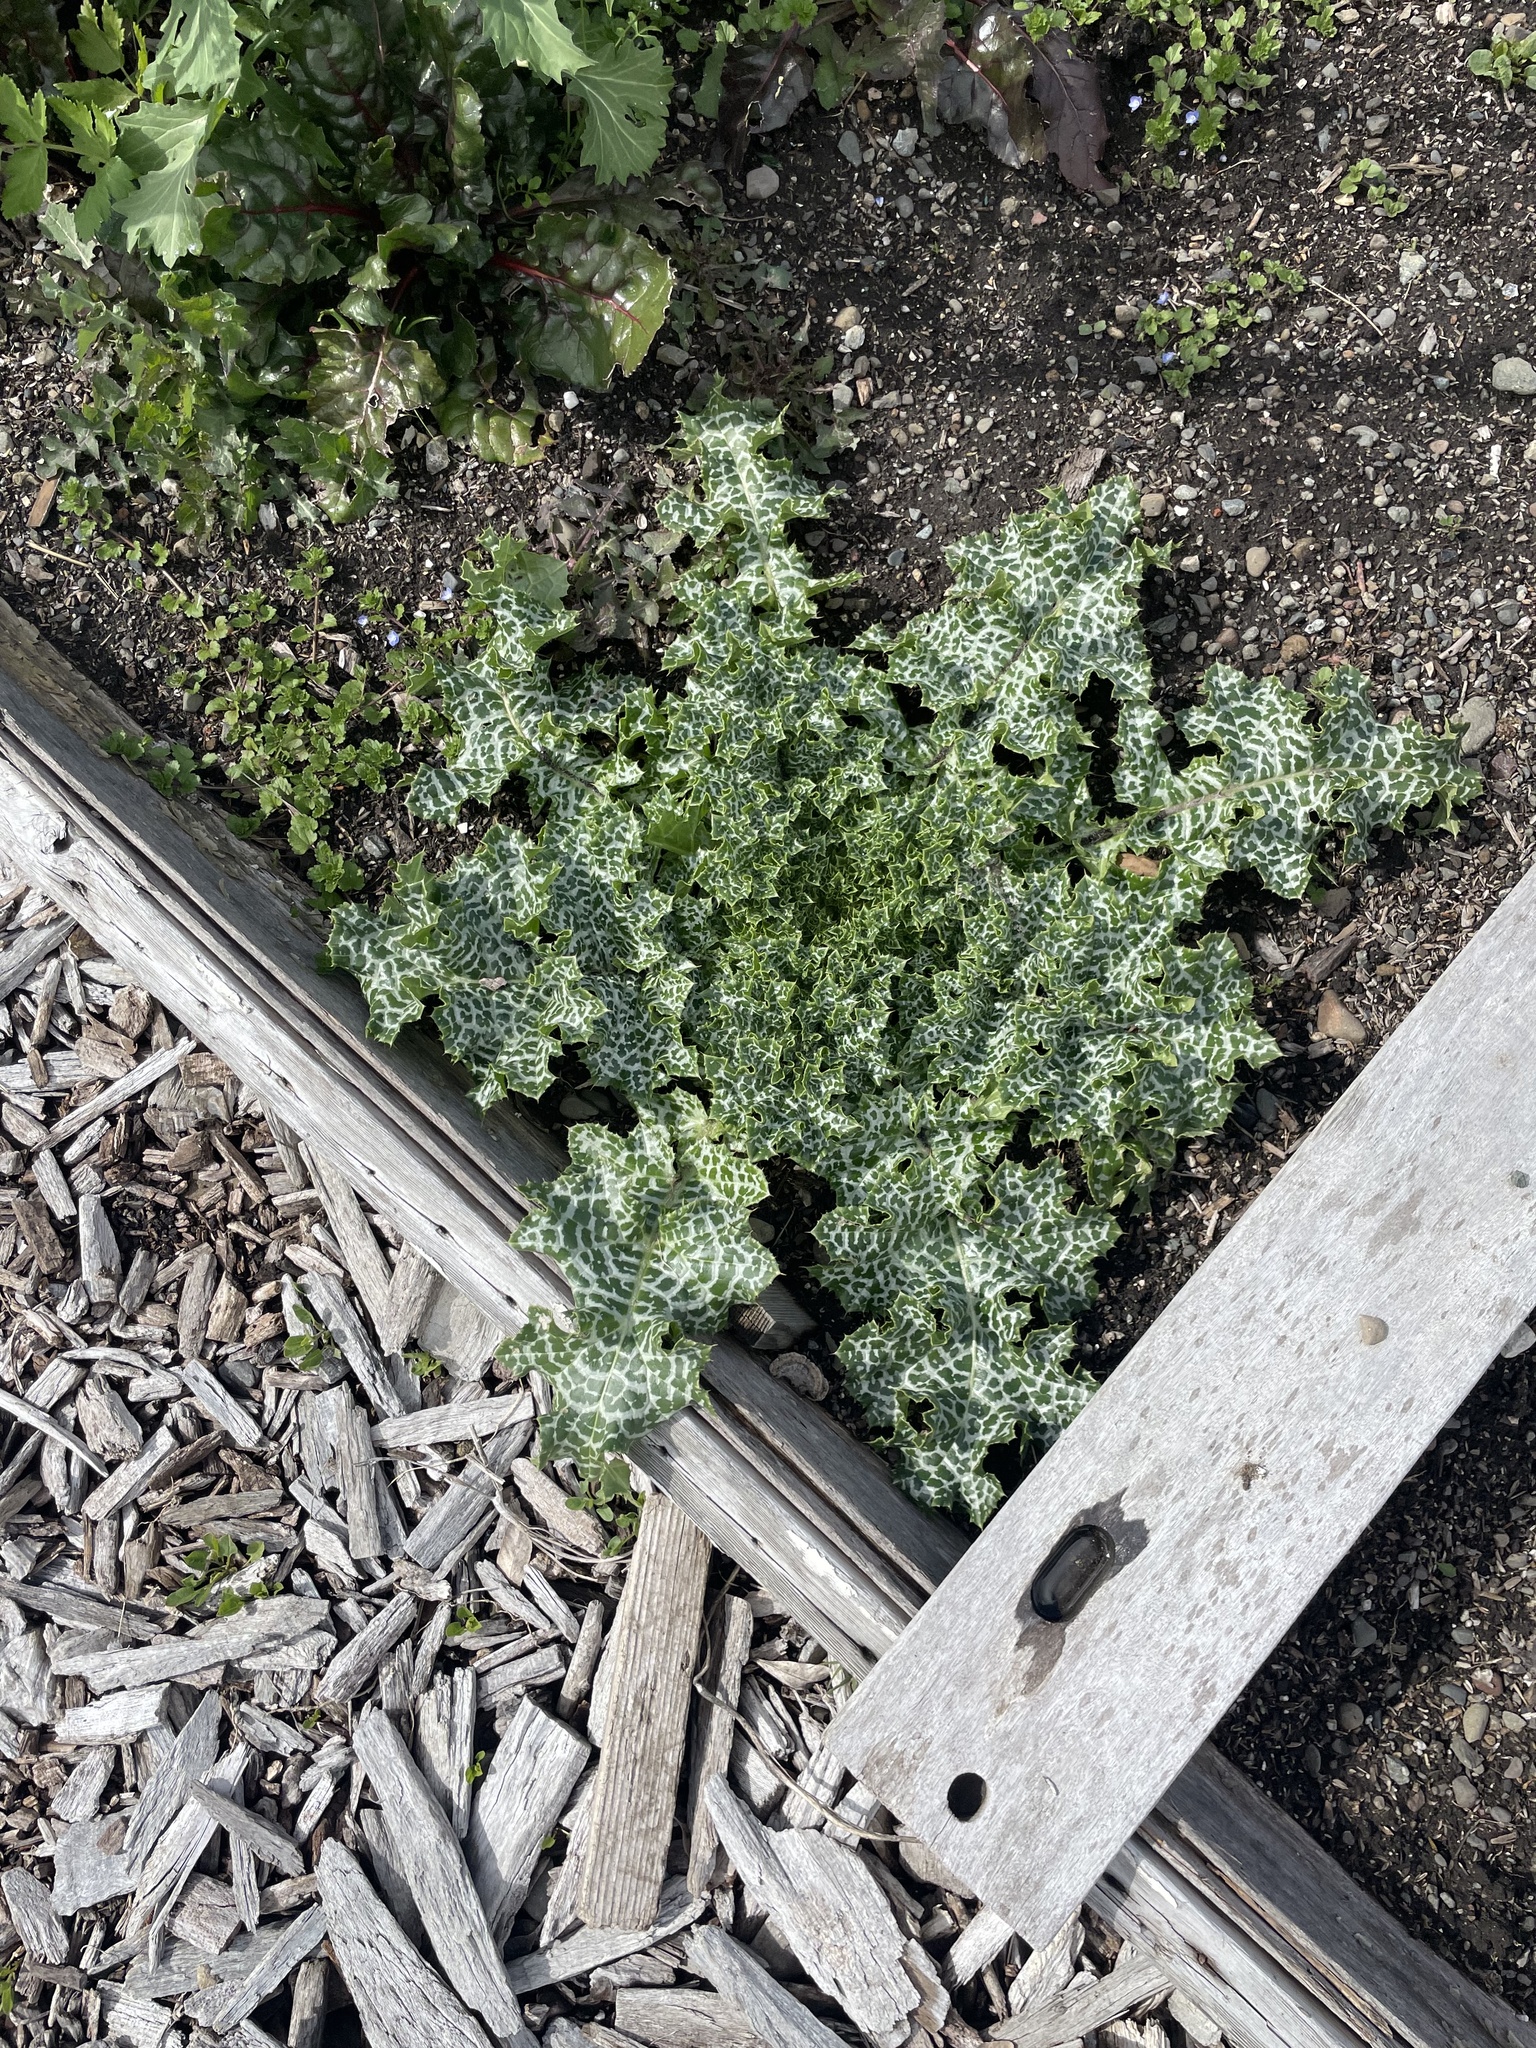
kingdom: Plantae
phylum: Tracheophyta
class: Magnoliopsida
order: Asterales
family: Asteraceae
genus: Silybum
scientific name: Silybum marianum
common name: Milk thistle
